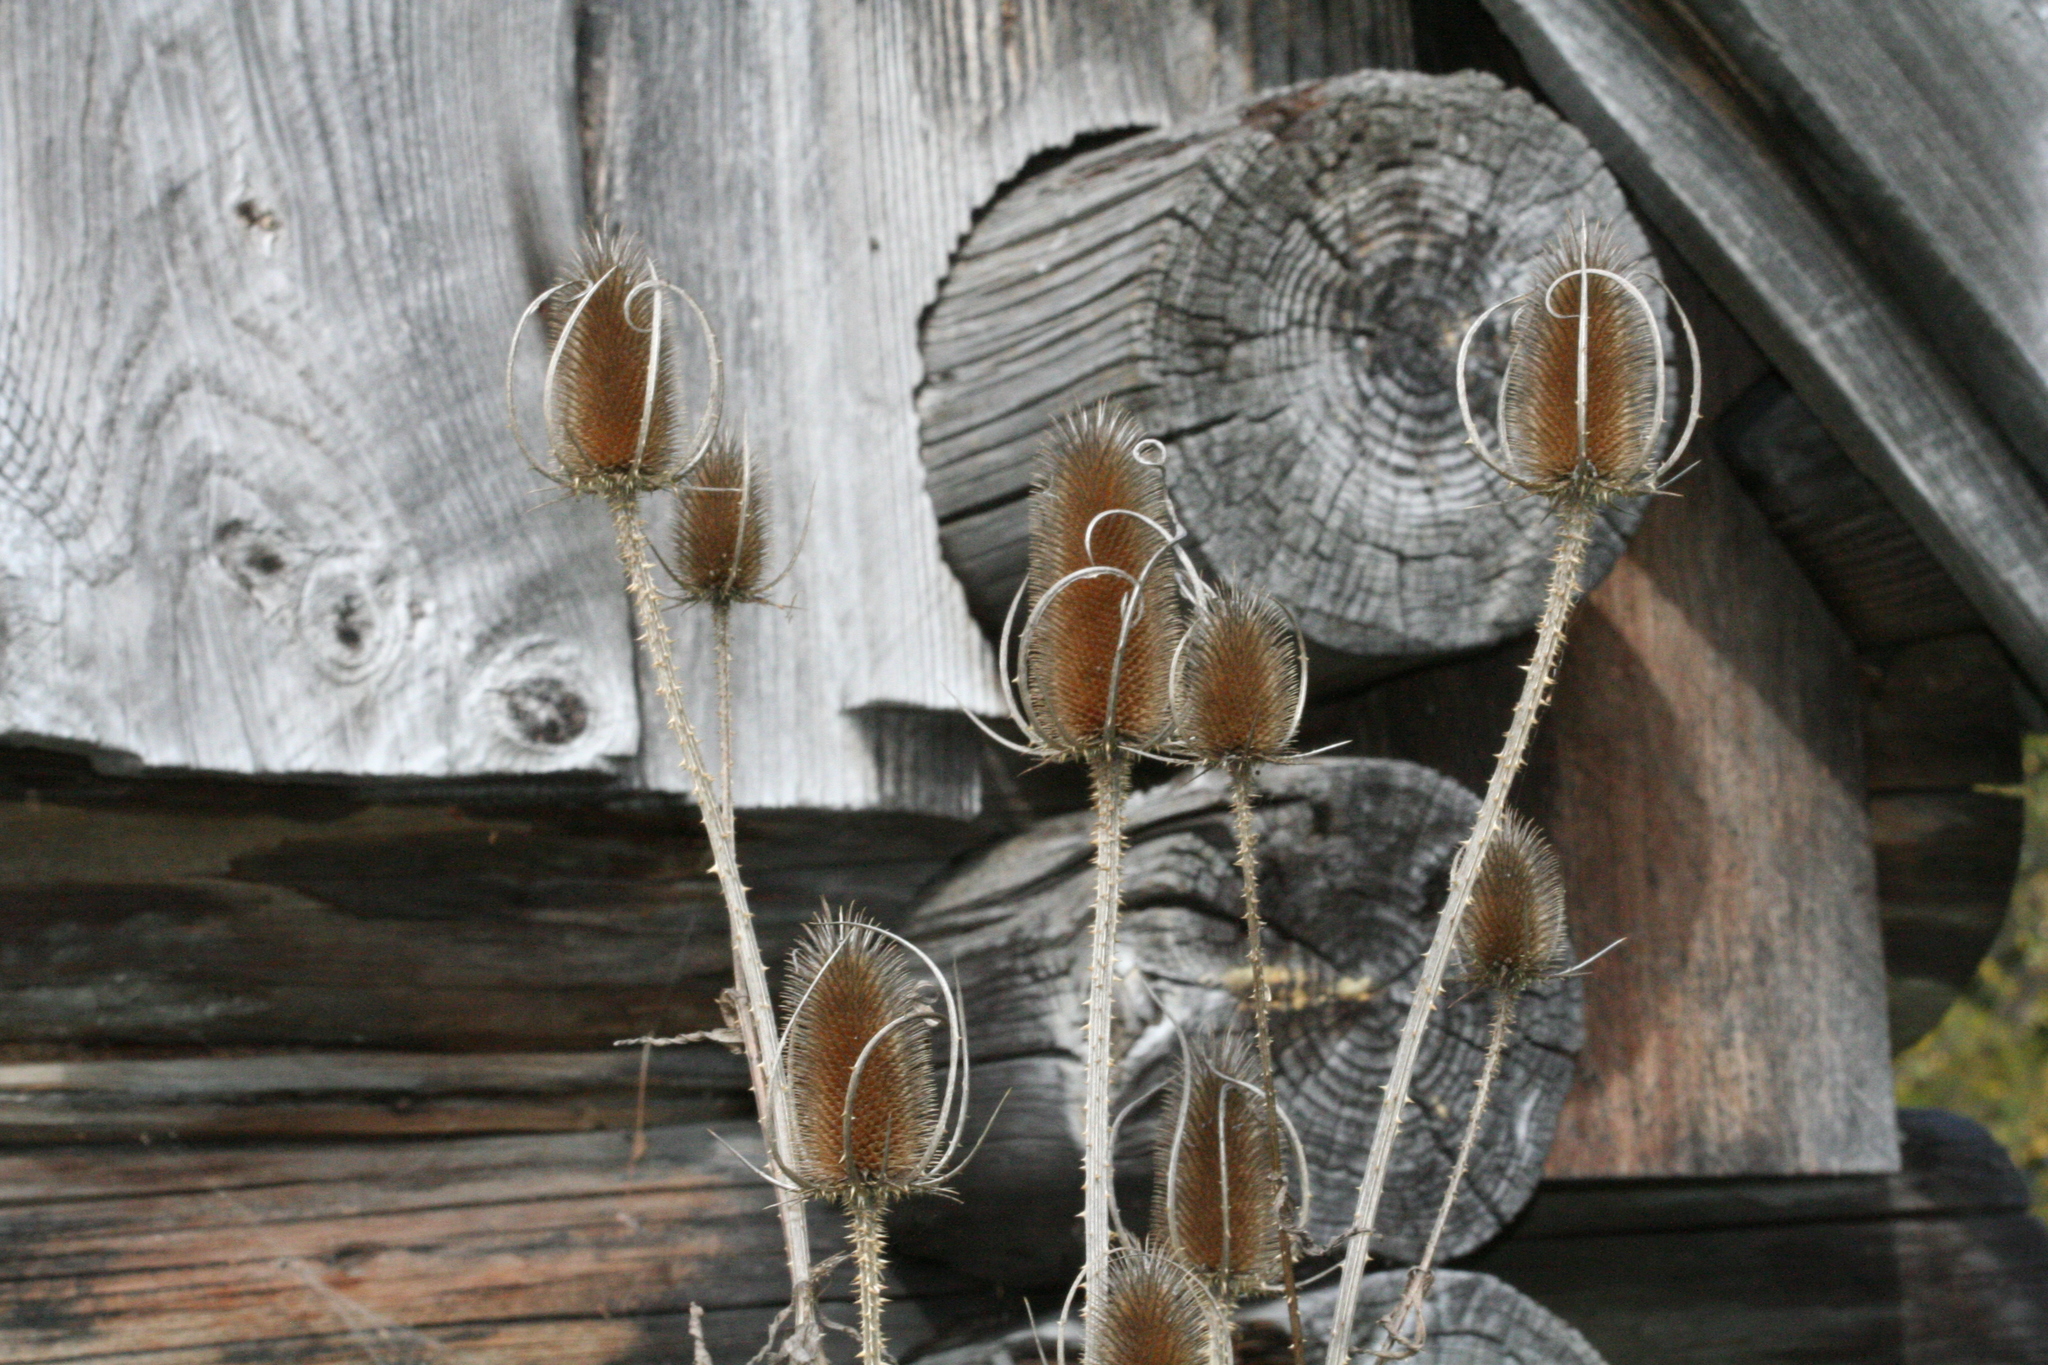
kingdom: Plantae
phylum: Tracheophyta
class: Magnoliopsida
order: Dipsacales
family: Caprifoliaceae
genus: Dipsacus
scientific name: Dipsacus fullonum
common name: Teasel
